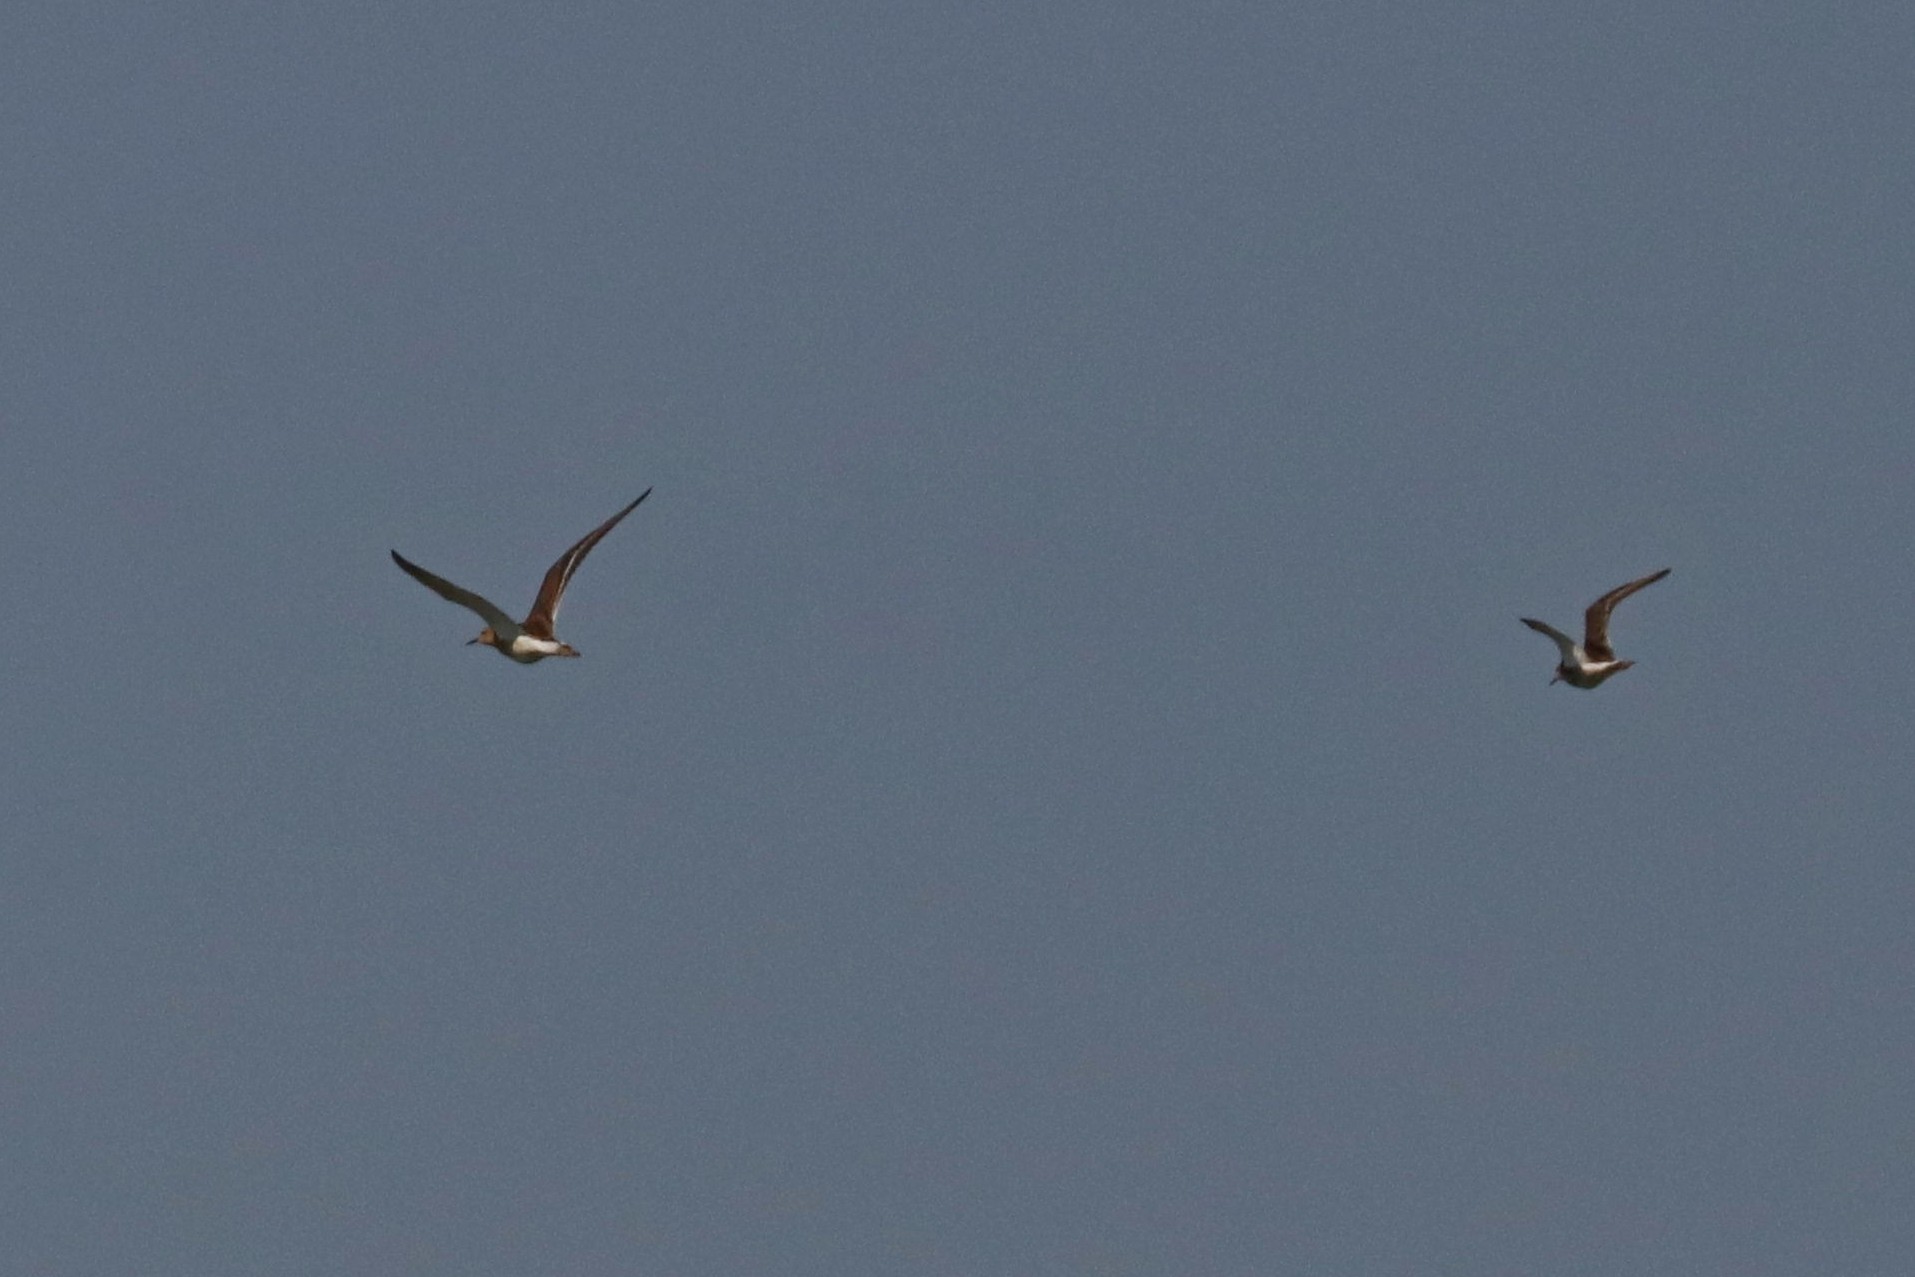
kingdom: Animalia
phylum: Chordata
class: Aves
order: Charadriiformes
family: Scolopacidae
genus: Calidris
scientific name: Calidris pugnax
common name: Ruff
